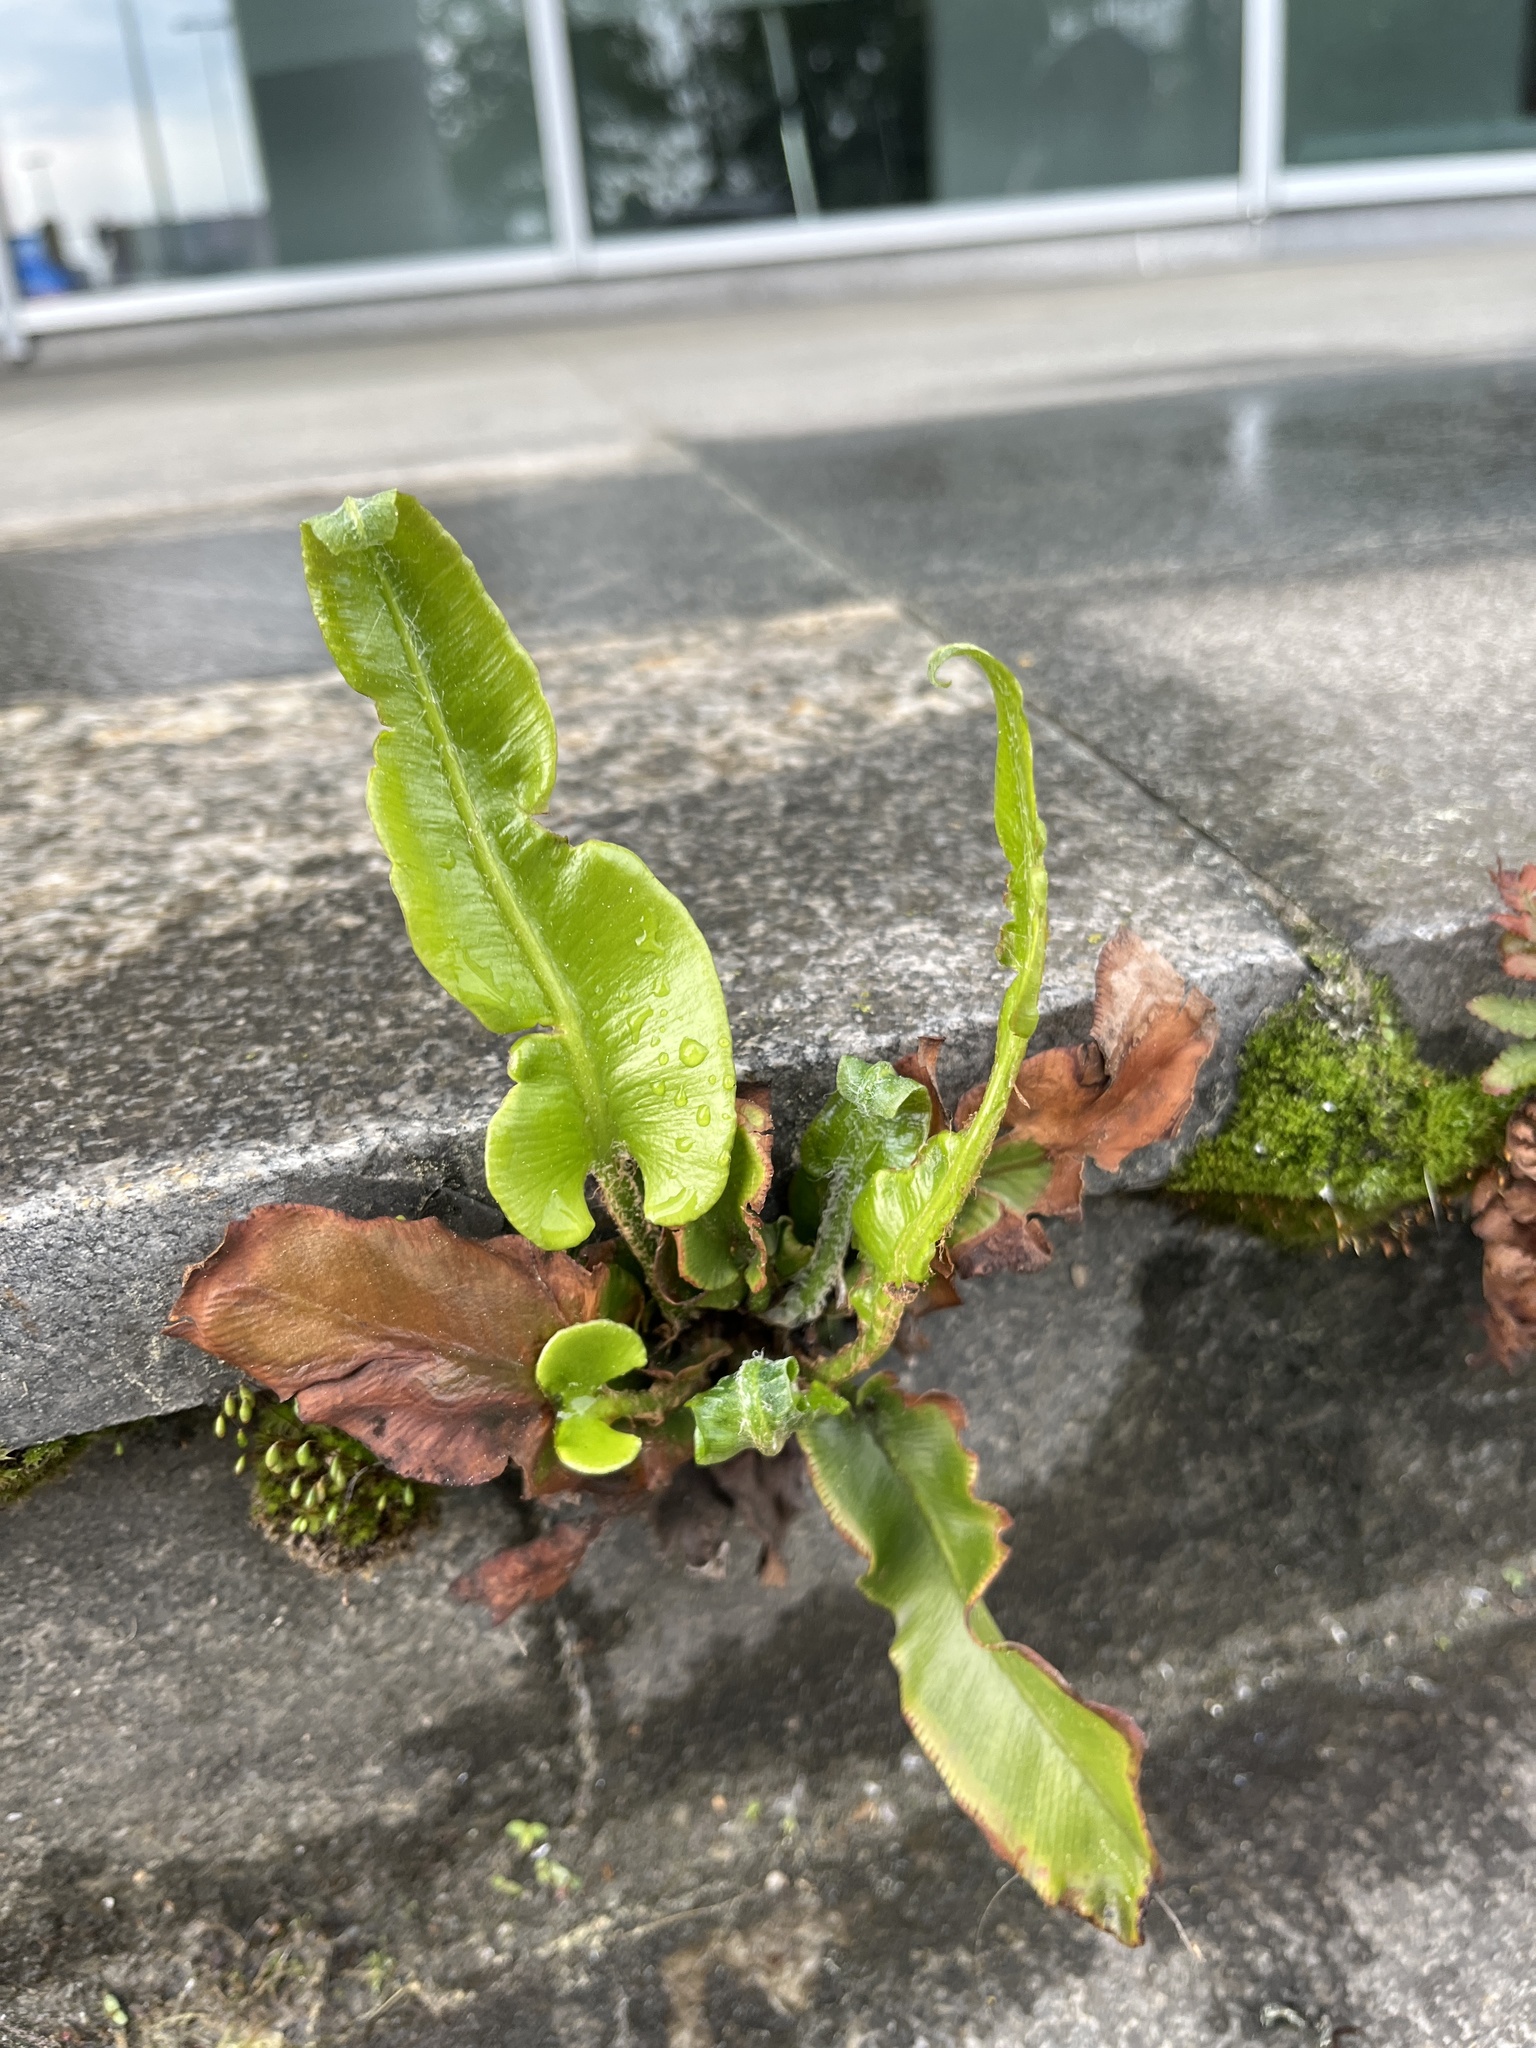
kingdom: Plantae
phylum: Tracheophyta
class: Polypodiopsida
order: Polypodiales
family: Aspleniaceae
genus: Asplenium
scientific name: Asplenium scolopendrium
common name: Hart's-tongue fern
